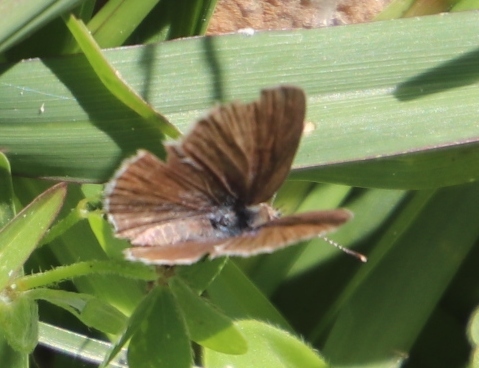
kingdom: Animalia
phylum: Arthropoda
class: Insecta
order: Lepidoptera
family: Lycaenidae
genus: Zizeeria
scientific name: Zizeeria knysna
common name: African grass blue
